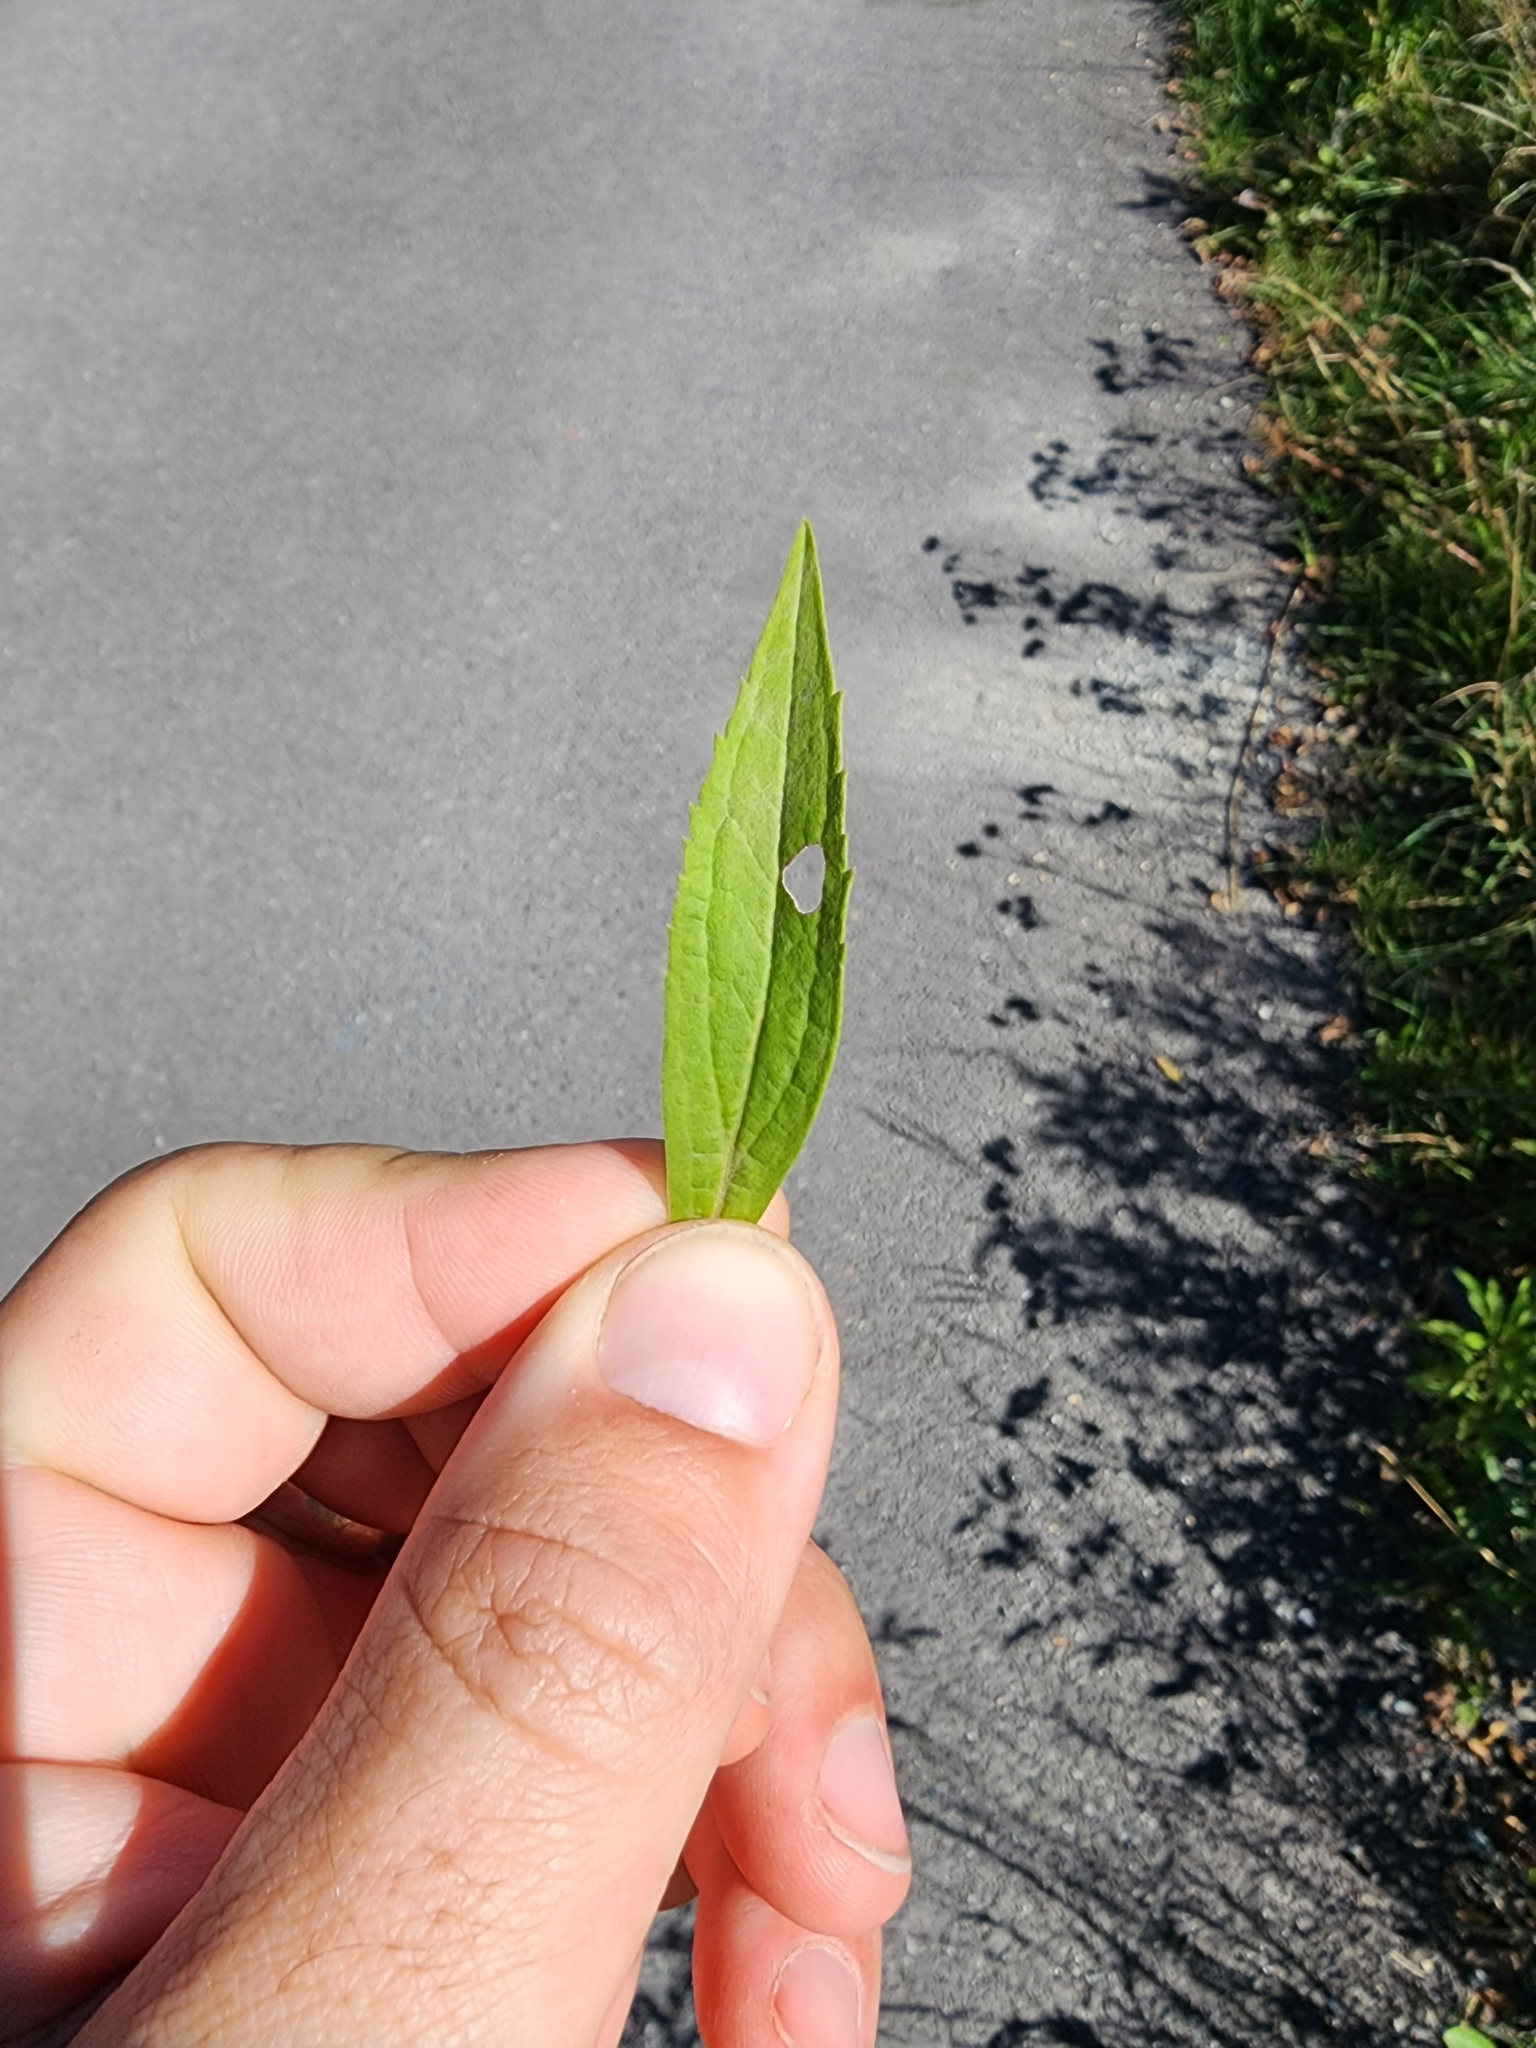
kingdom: Plantae
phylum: Tracheophyta
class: Magnoliopsida
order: Asterales
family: Asteraceae
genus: Solidago
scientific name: Solidago gigantea
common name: Giant goldenrod
